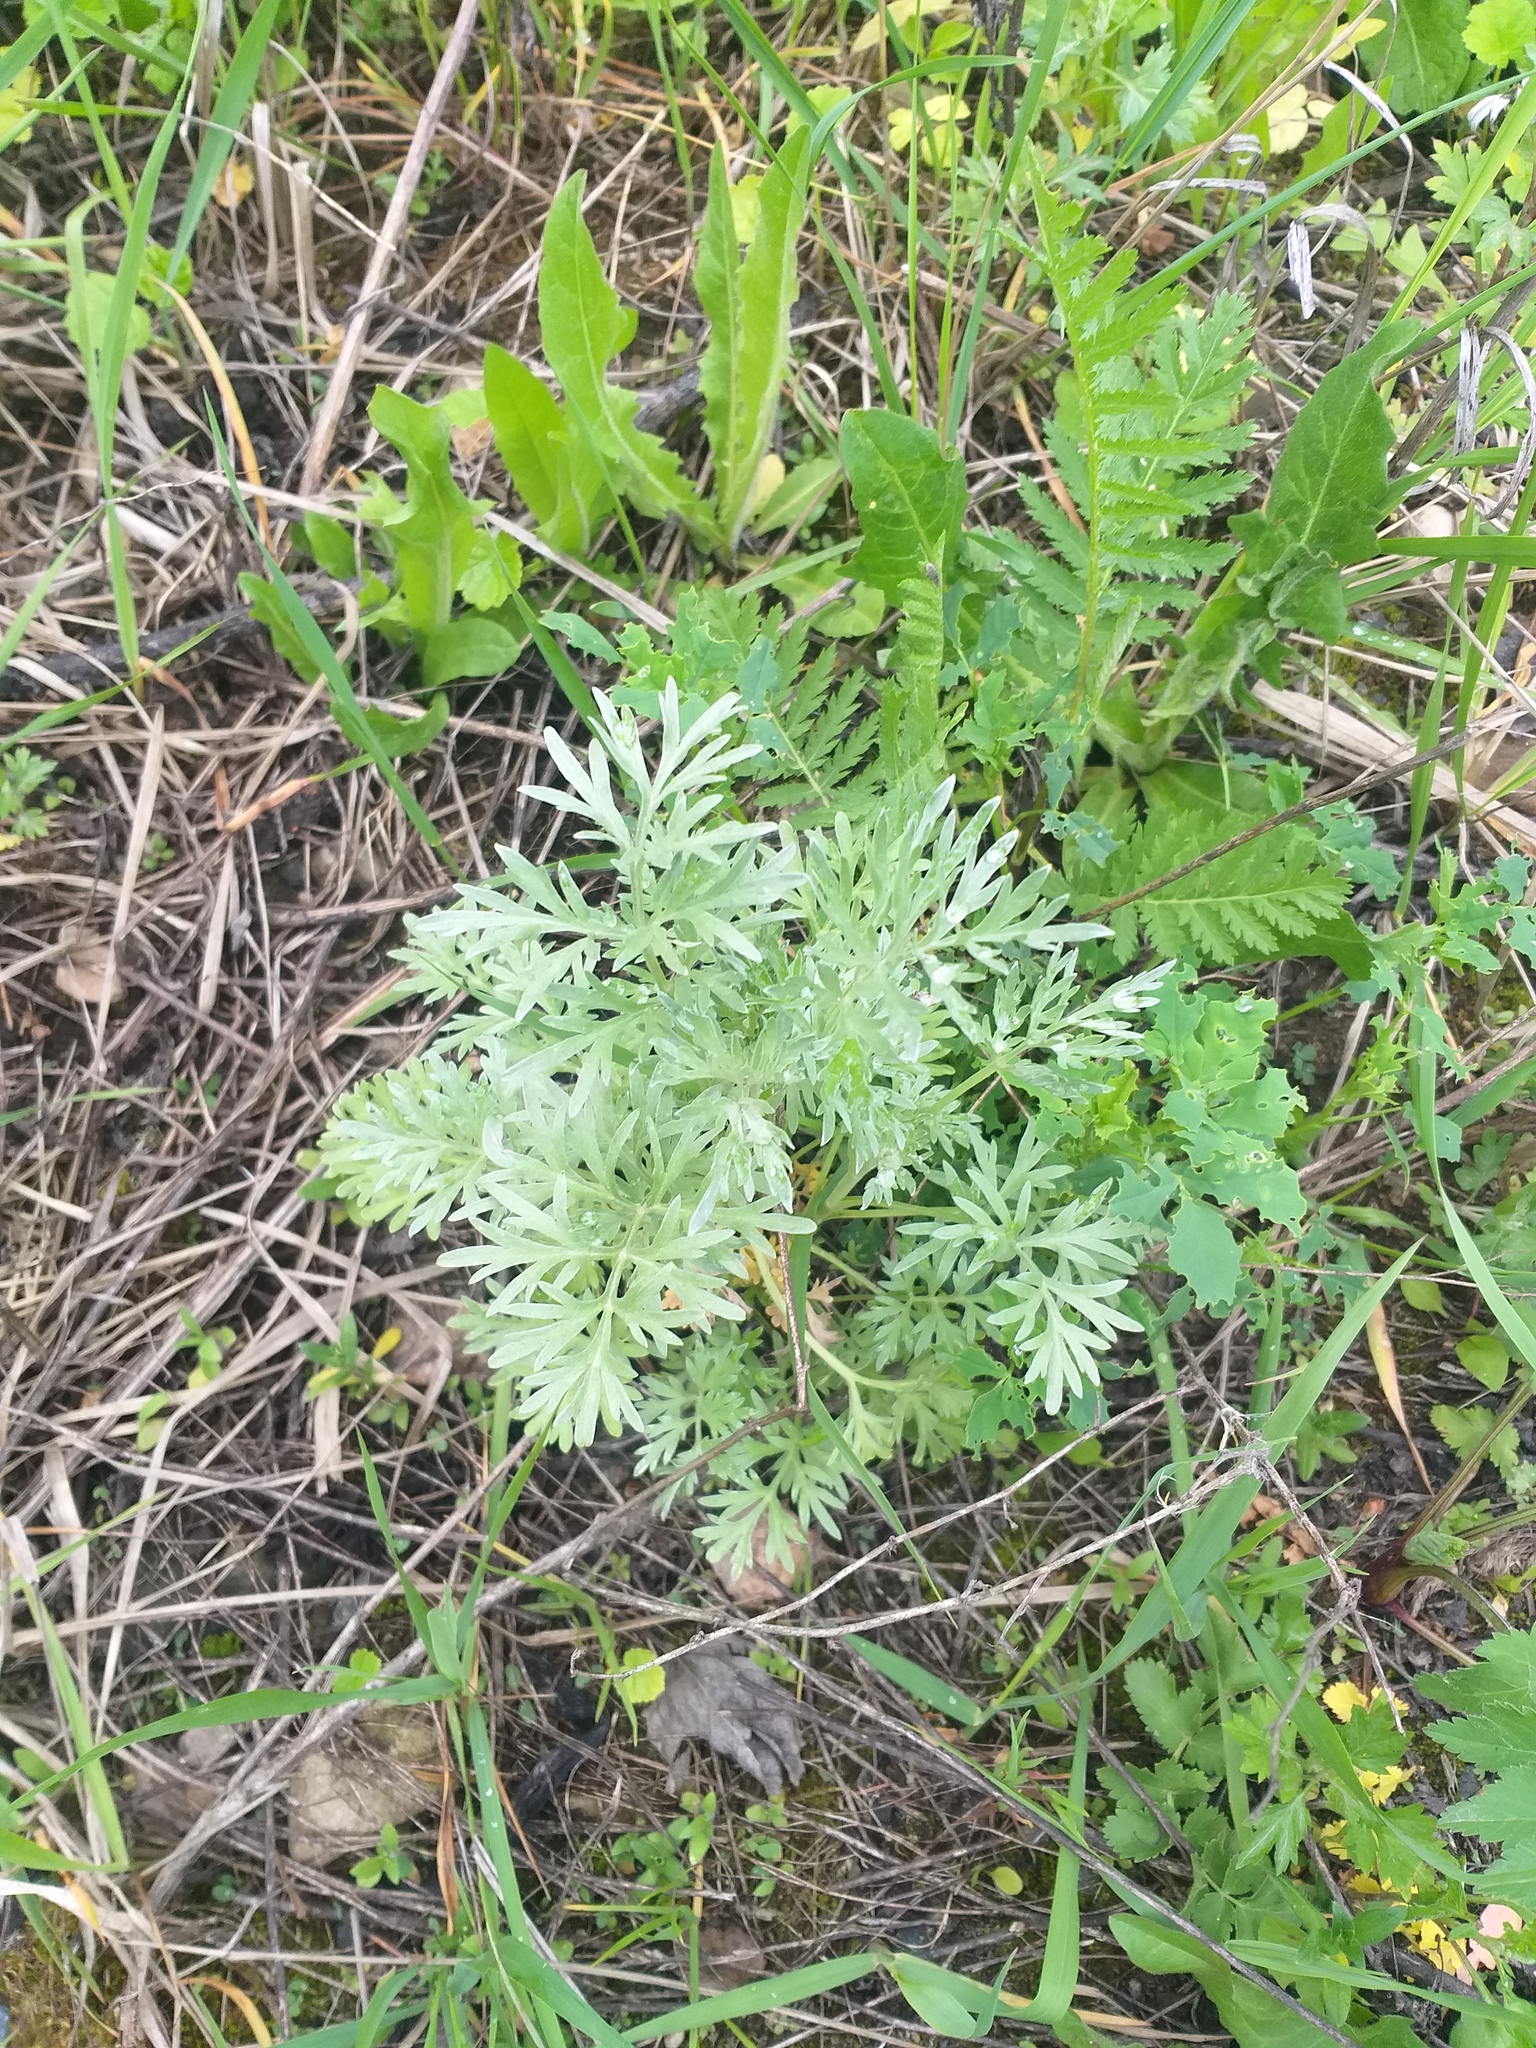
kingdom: Plantae
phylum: Tracheophyta
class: Magnoliopsida
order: Asterales
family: Asteraceae
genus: Artemisia
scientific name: Artemisia absinthium
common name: Wormwood
